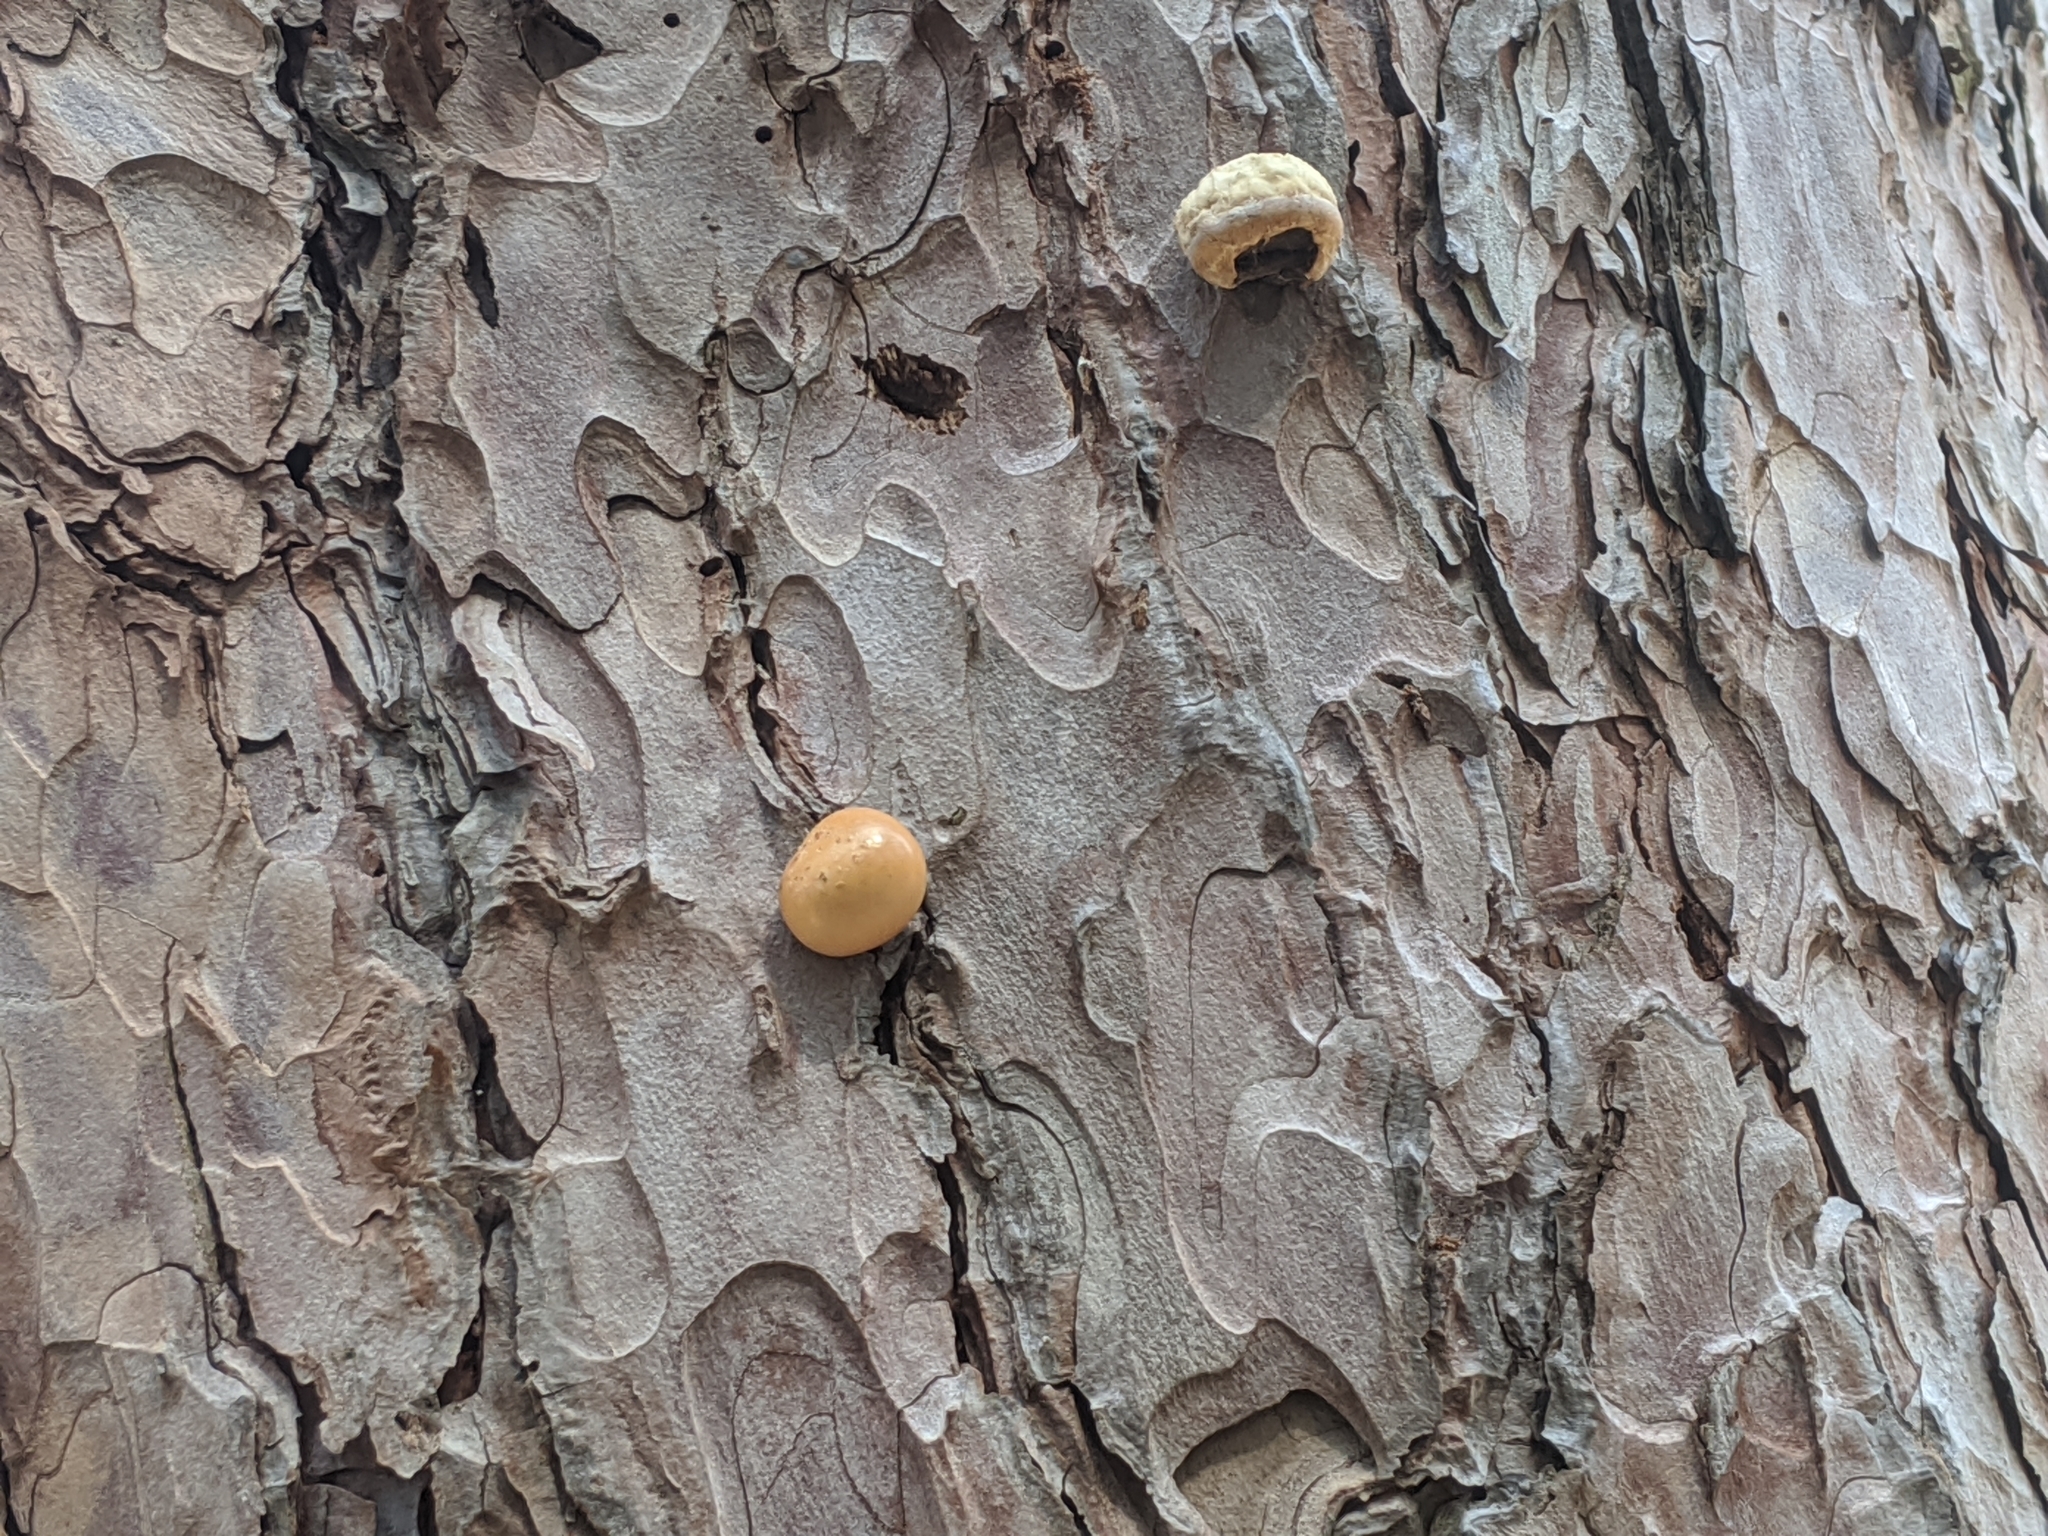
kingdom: Fungi
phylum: Basidiomycota
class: Agaricomycetes
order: Polyporales
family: Polyporaceae
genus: Cryptoporus
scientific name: Cryptoporus volvatus
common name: Veiled polypore
